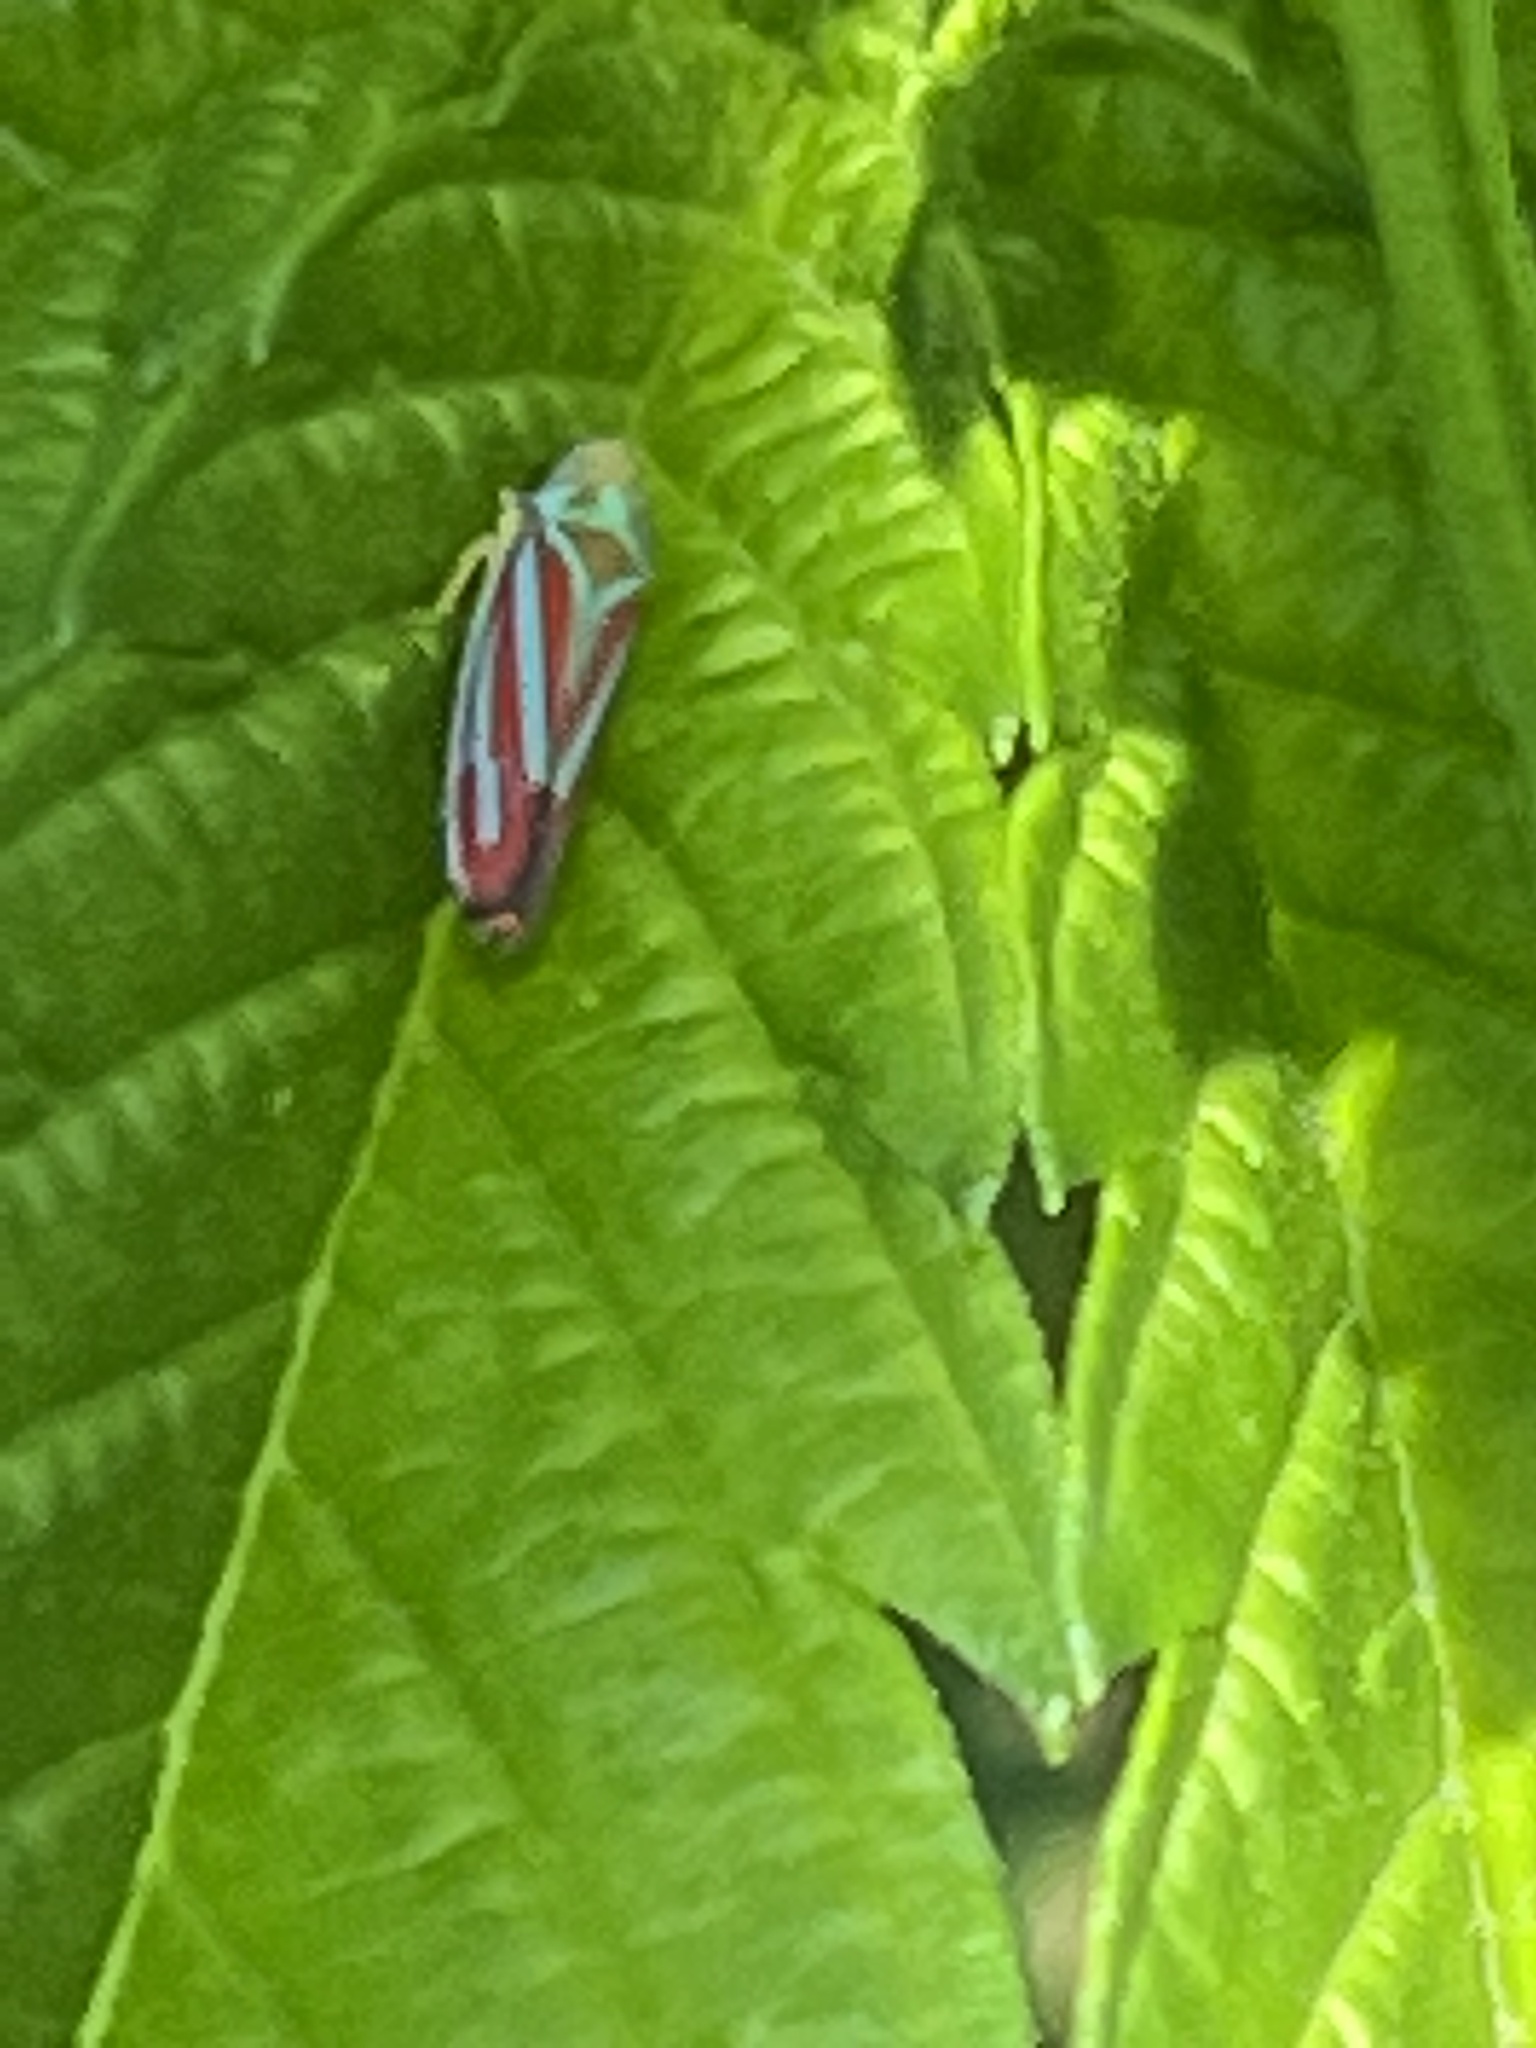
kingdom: Animalia
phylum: Arthropoda
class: Insecta
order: Hemiptera
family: Cicadellidae
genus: Graphocephala
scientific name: Graphocephala coccinea
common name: Candy-striped leafhopper
